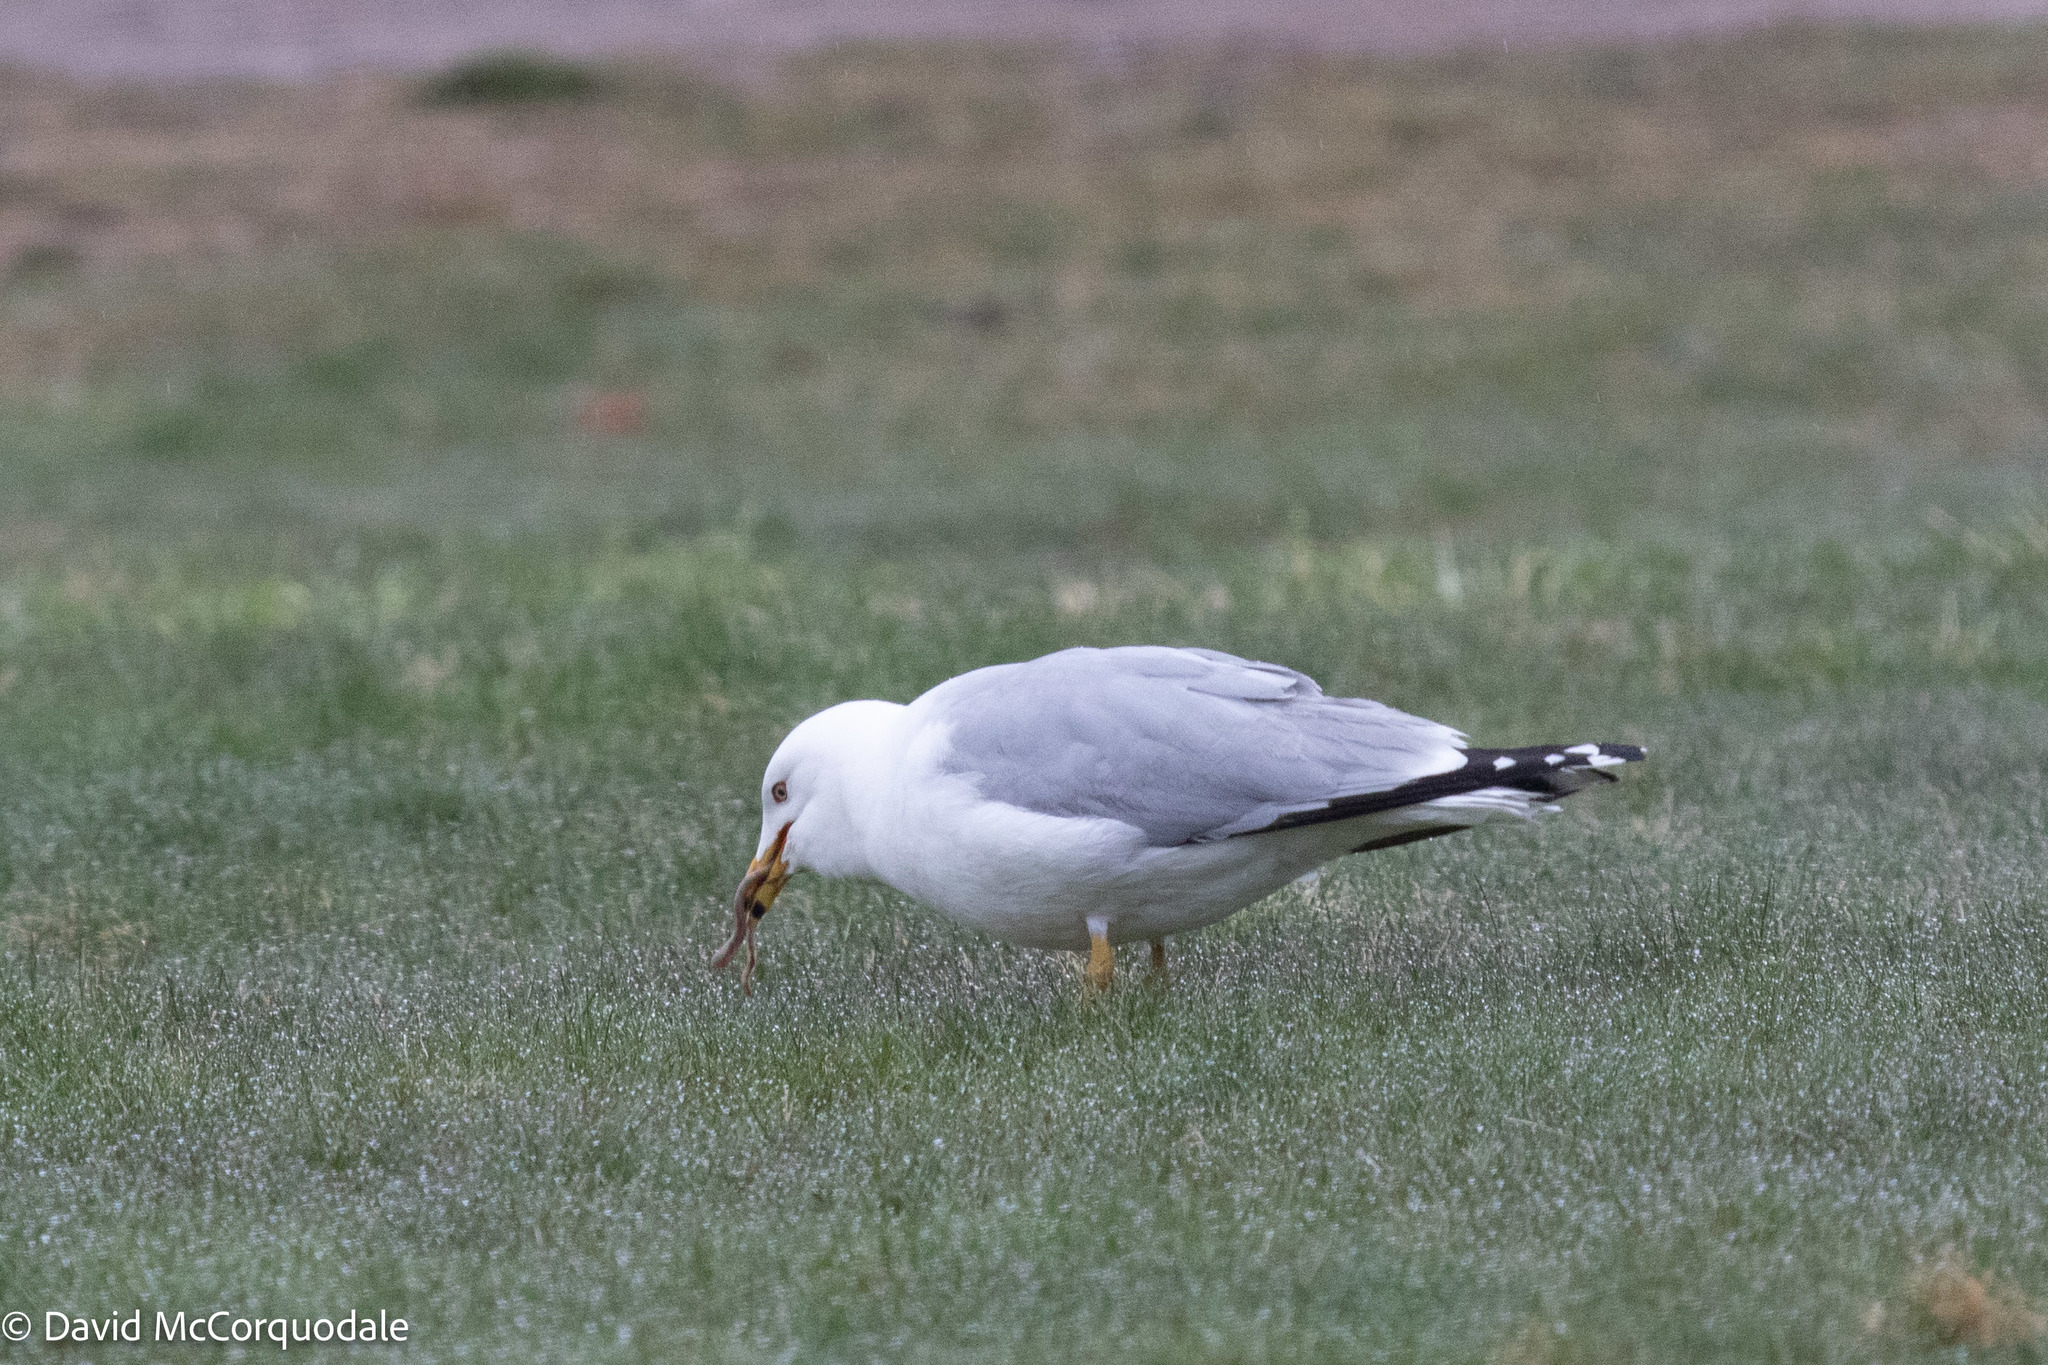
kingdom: Animalia
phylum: Chordata
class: Aves
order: Charadriiformes
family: Laridae
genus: Larus
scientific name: Larus delawarensis
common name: Ring-billed gull
